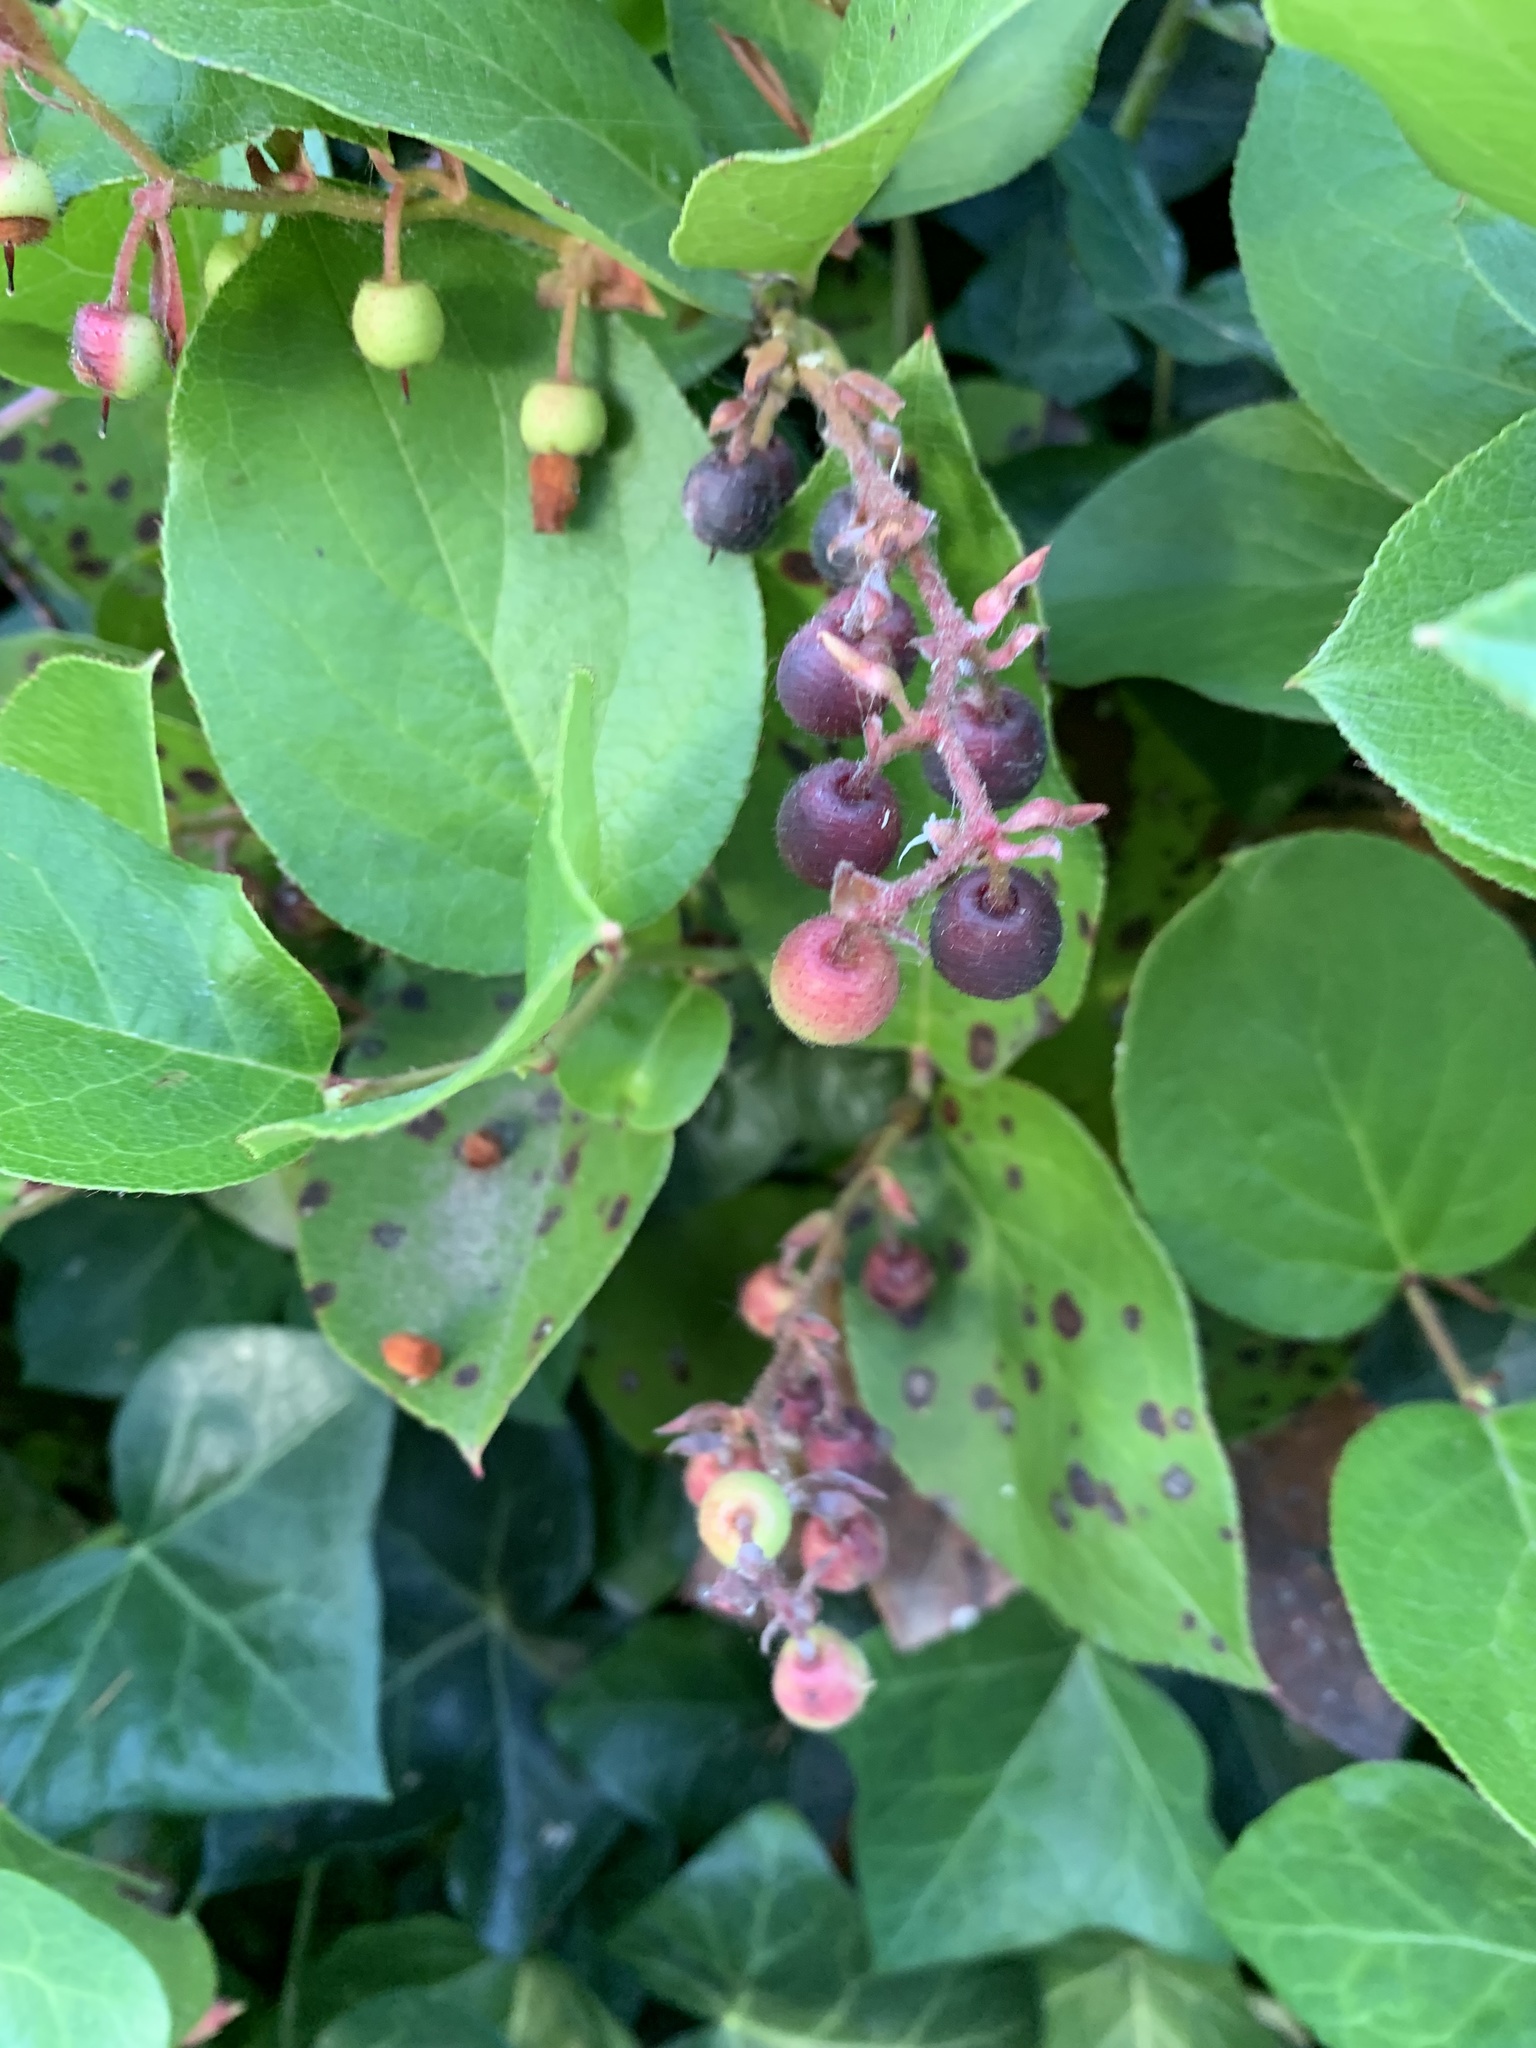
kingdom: Plantae
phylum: Tracheophyta
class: Magnoliopsida
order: Ericales
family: Ericaceae
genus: Gaultheria
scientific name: Gaultheria shallon
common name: Shallon
